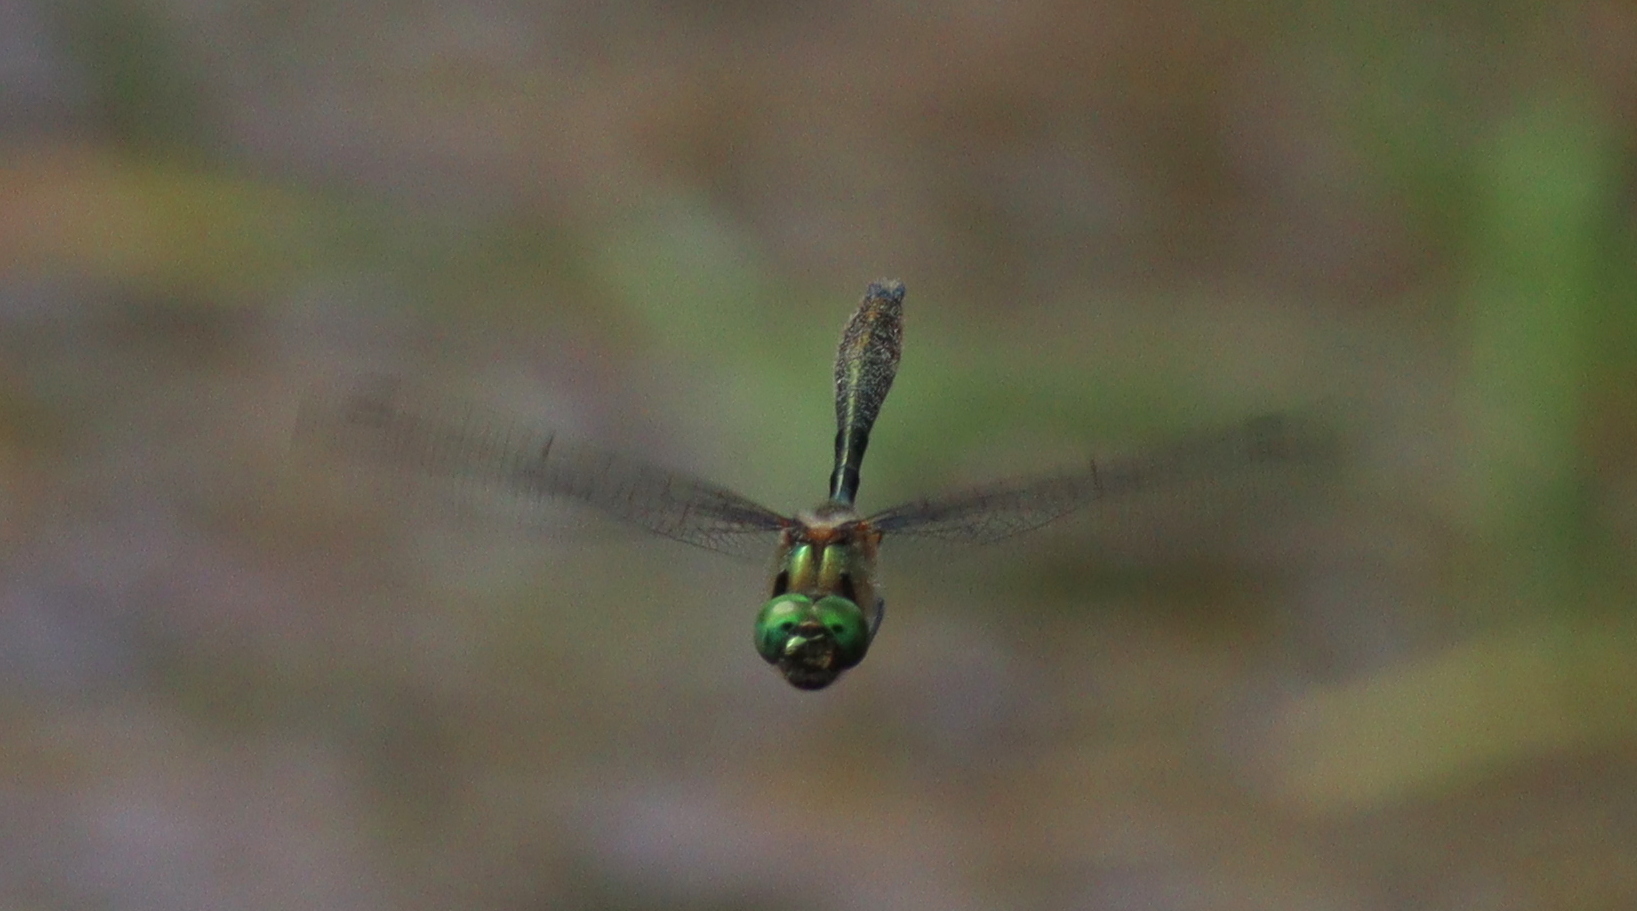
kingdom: Animalia
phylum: Arthropoda
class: Insecta
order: Odonata
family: Corduliidae
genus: Cordulia
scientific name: Cordulia aenea
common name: Downy emerald
